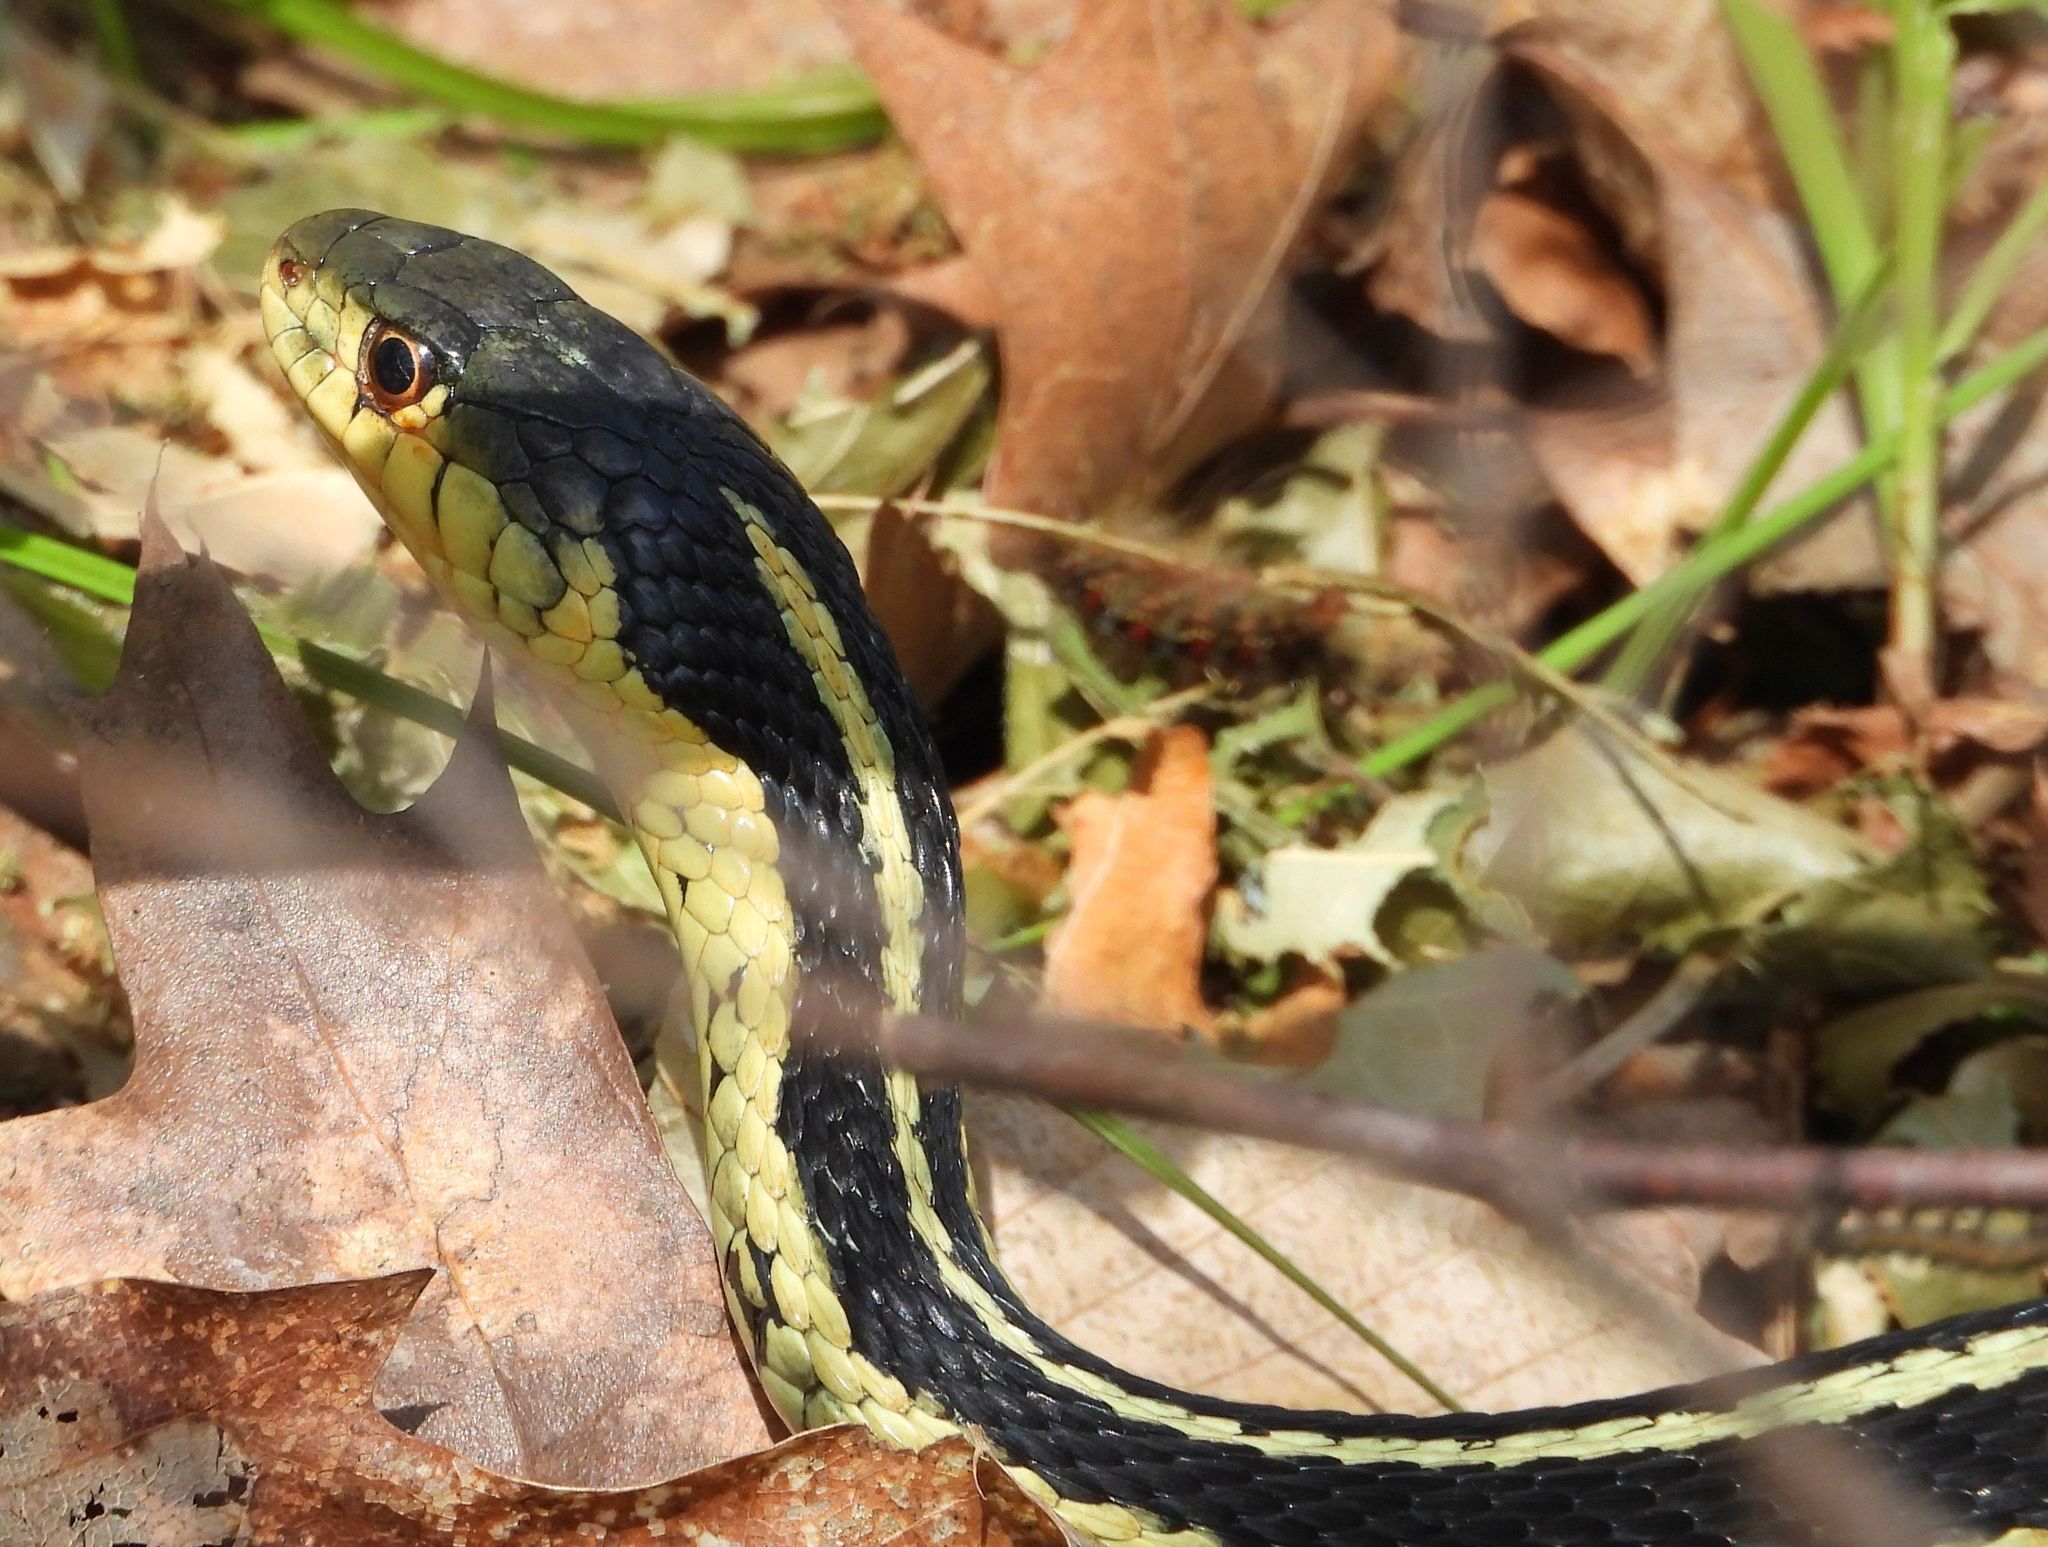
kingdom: Animalia
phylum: Chordata
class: Squamata
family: Colubridae
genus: Thamnophis
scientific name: Thamnophis sirtalis
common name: Common garter snake
